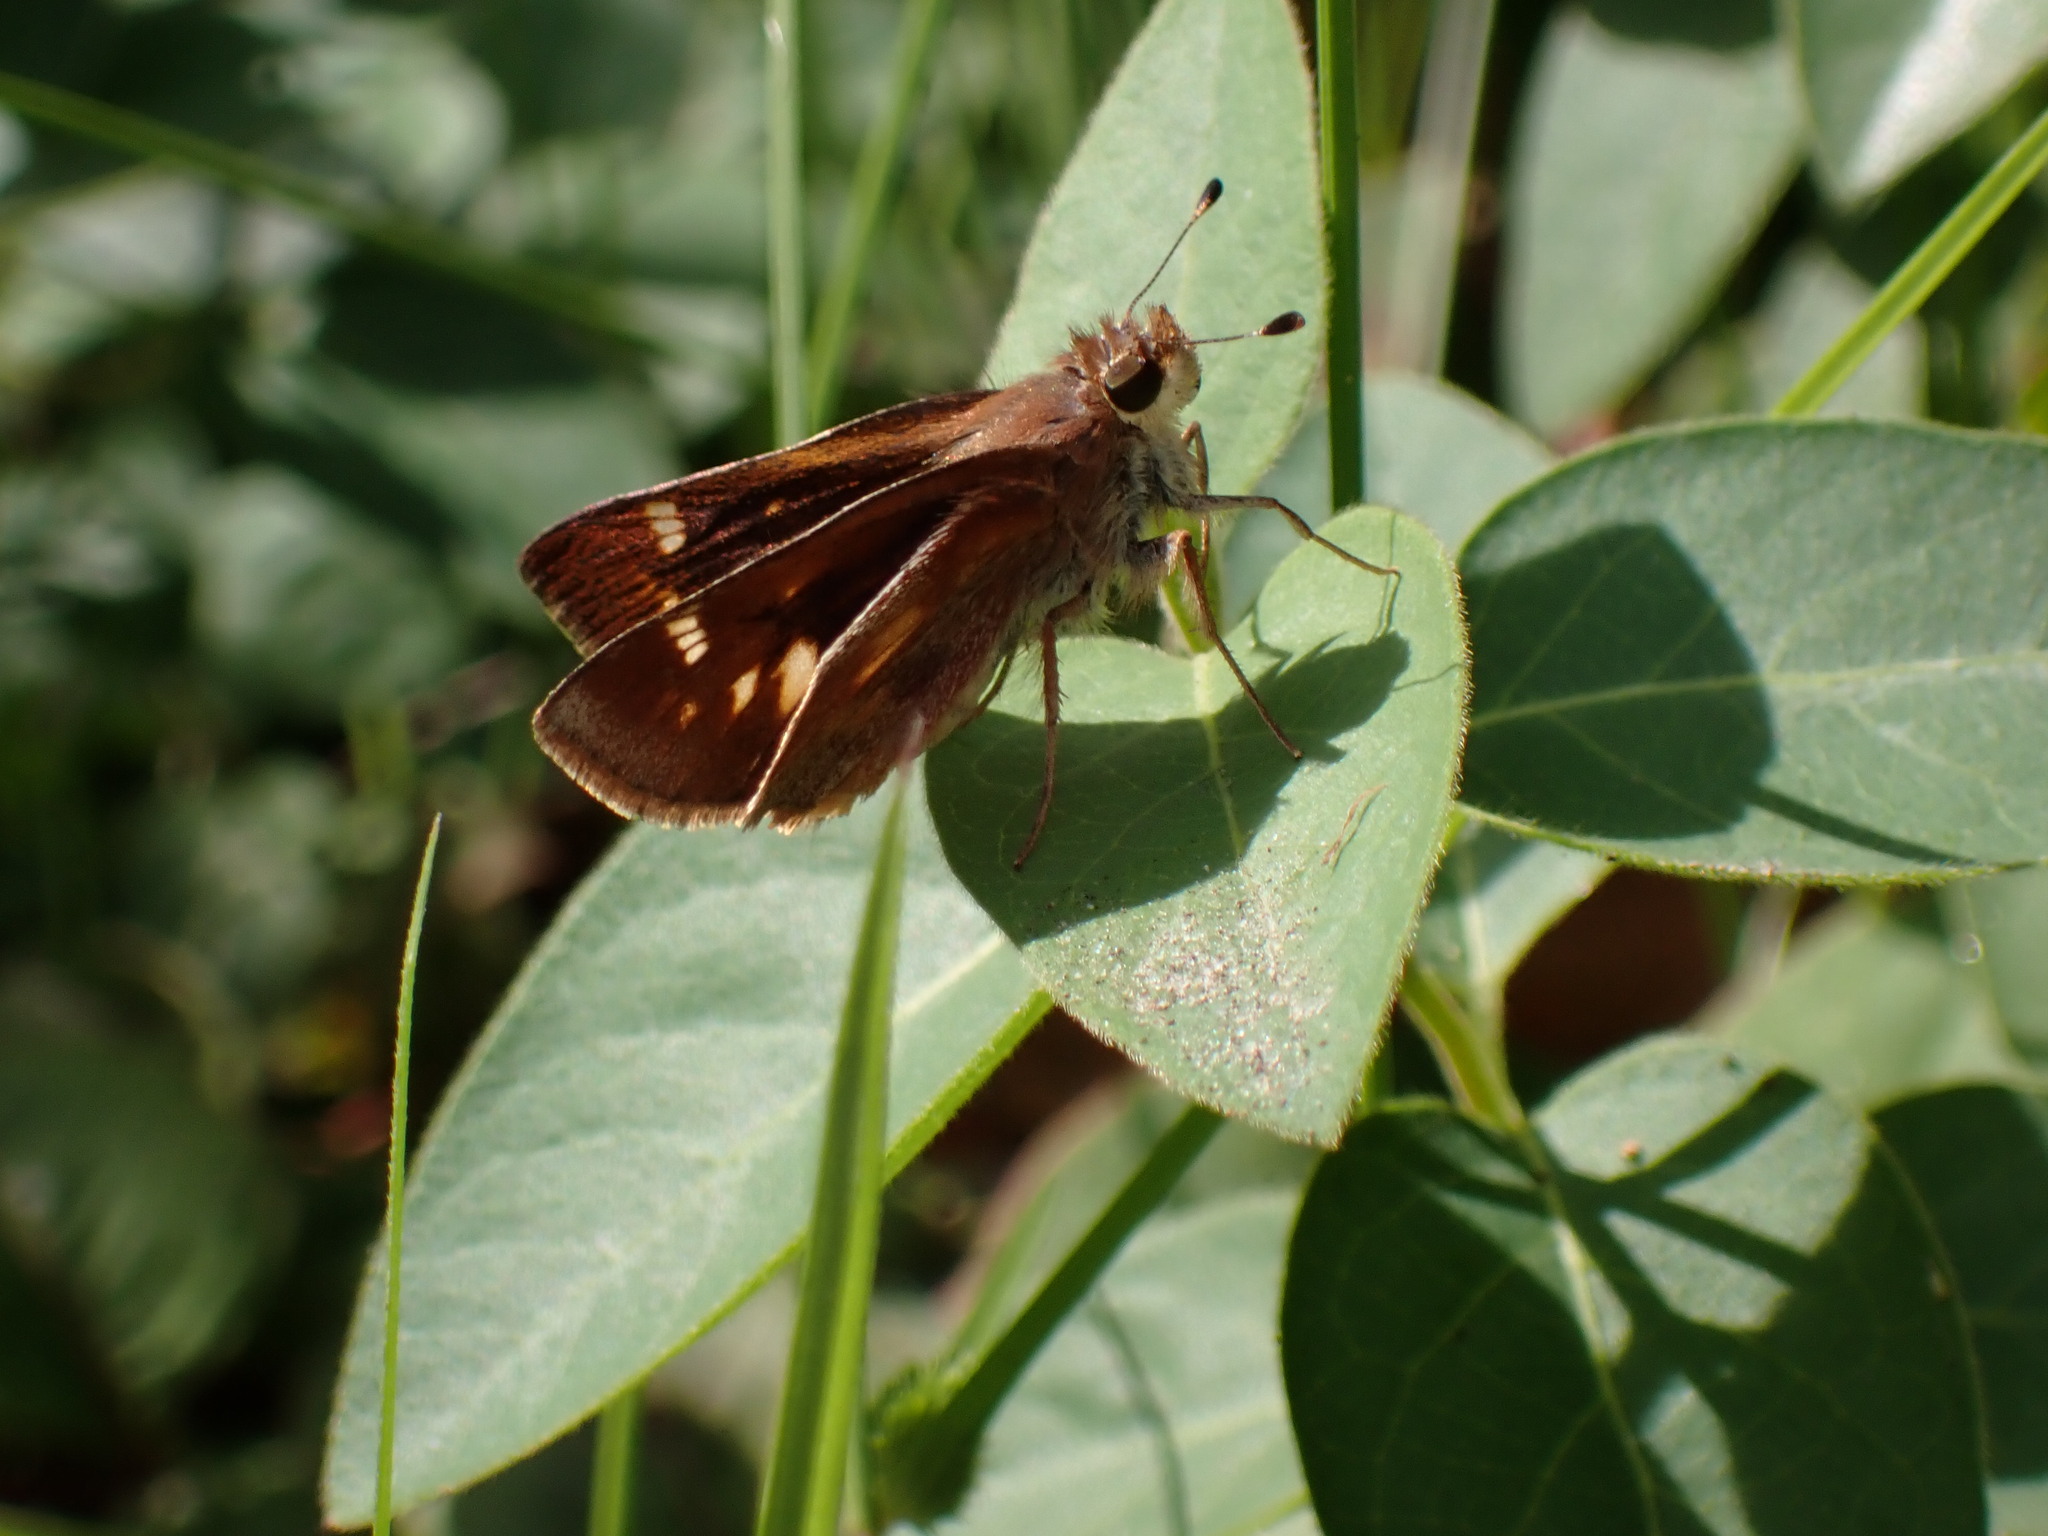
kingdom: Animalia
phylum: Arthropoda
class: Insecta
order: Lepidoptera
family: Hesperiidae
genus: Lon
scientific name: Lon melane
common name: Umber skipper
